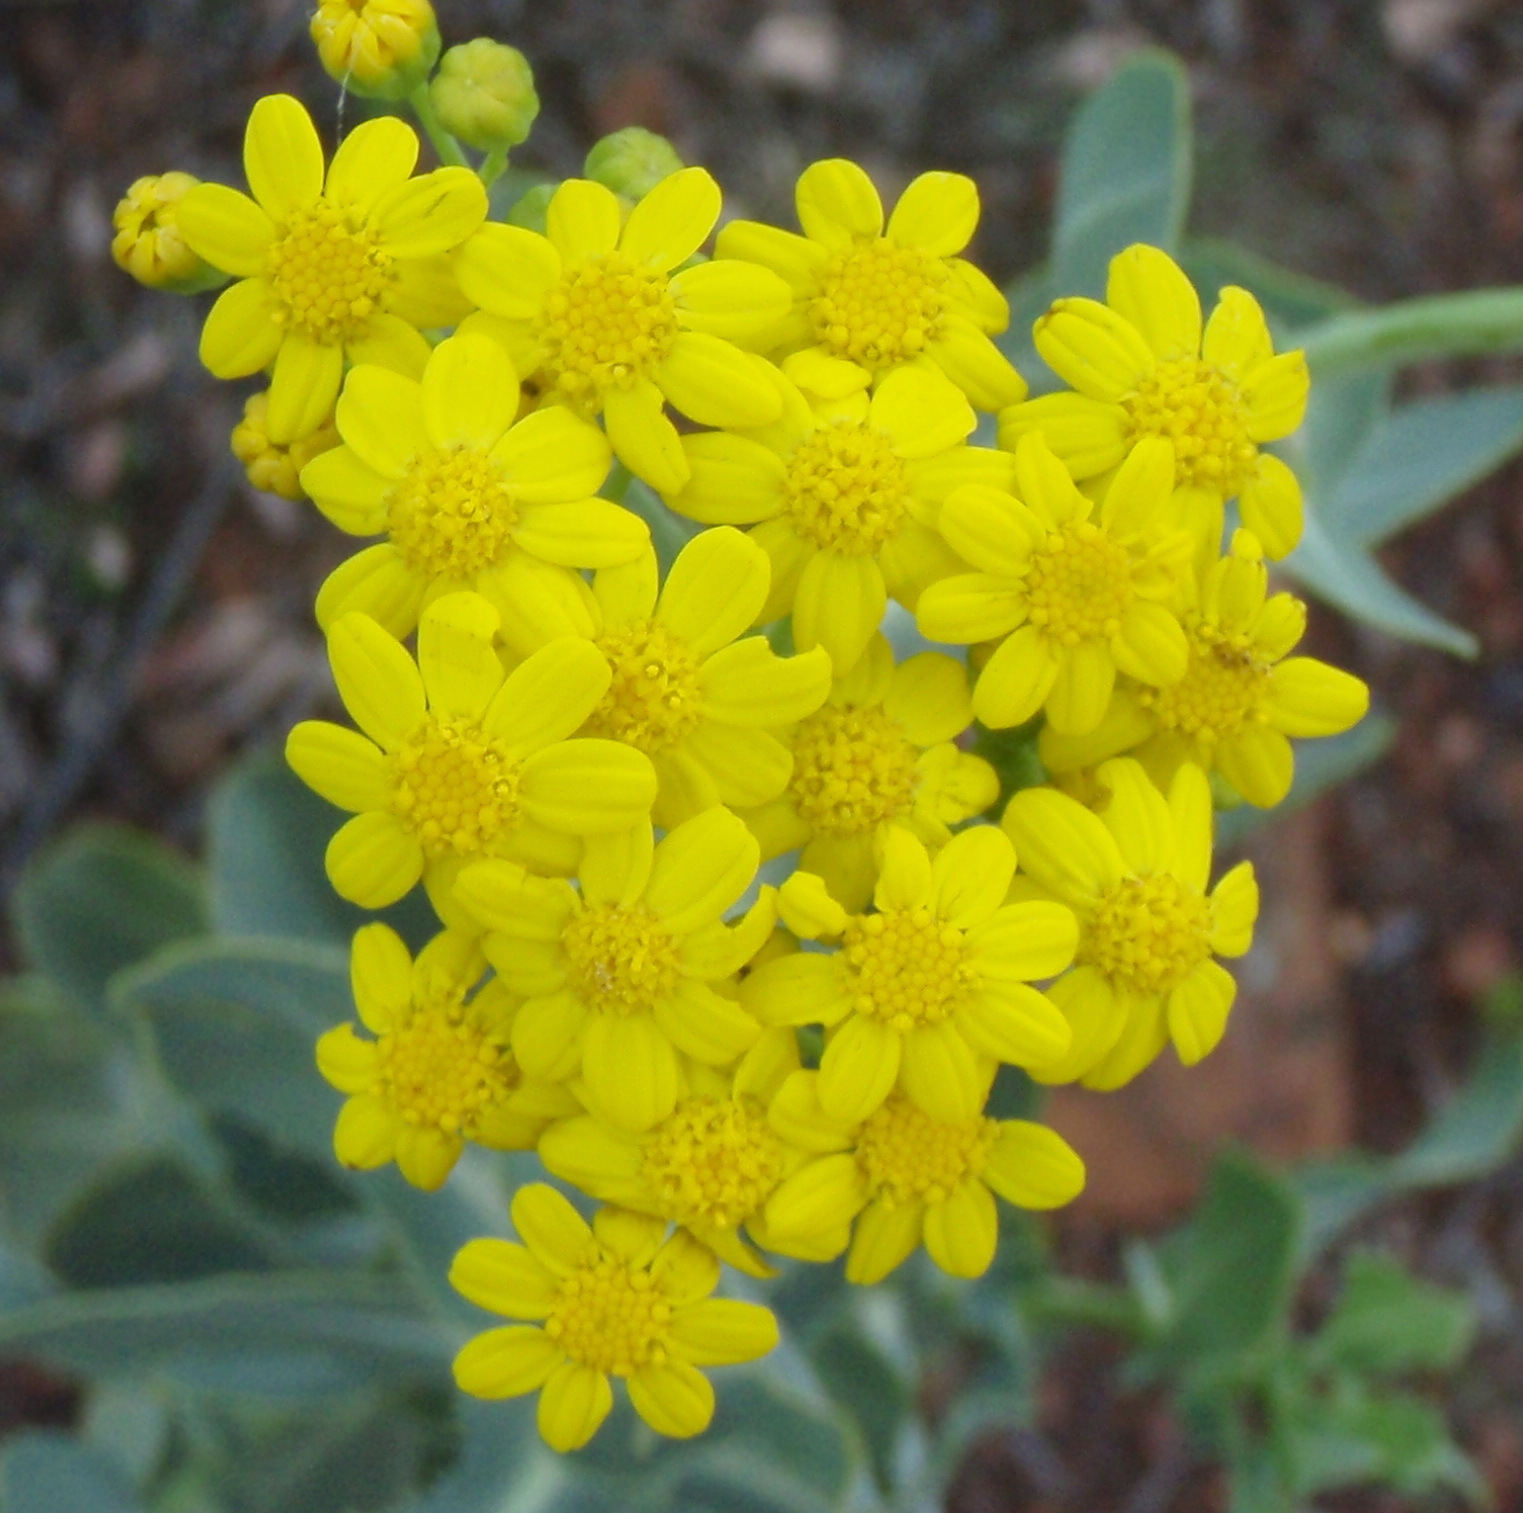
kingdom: Plantae
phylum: Tracheophyta
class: Magnoliopsida
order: Asterales
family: Asteraceae
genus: Othonna
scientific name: Othonna parviflora
